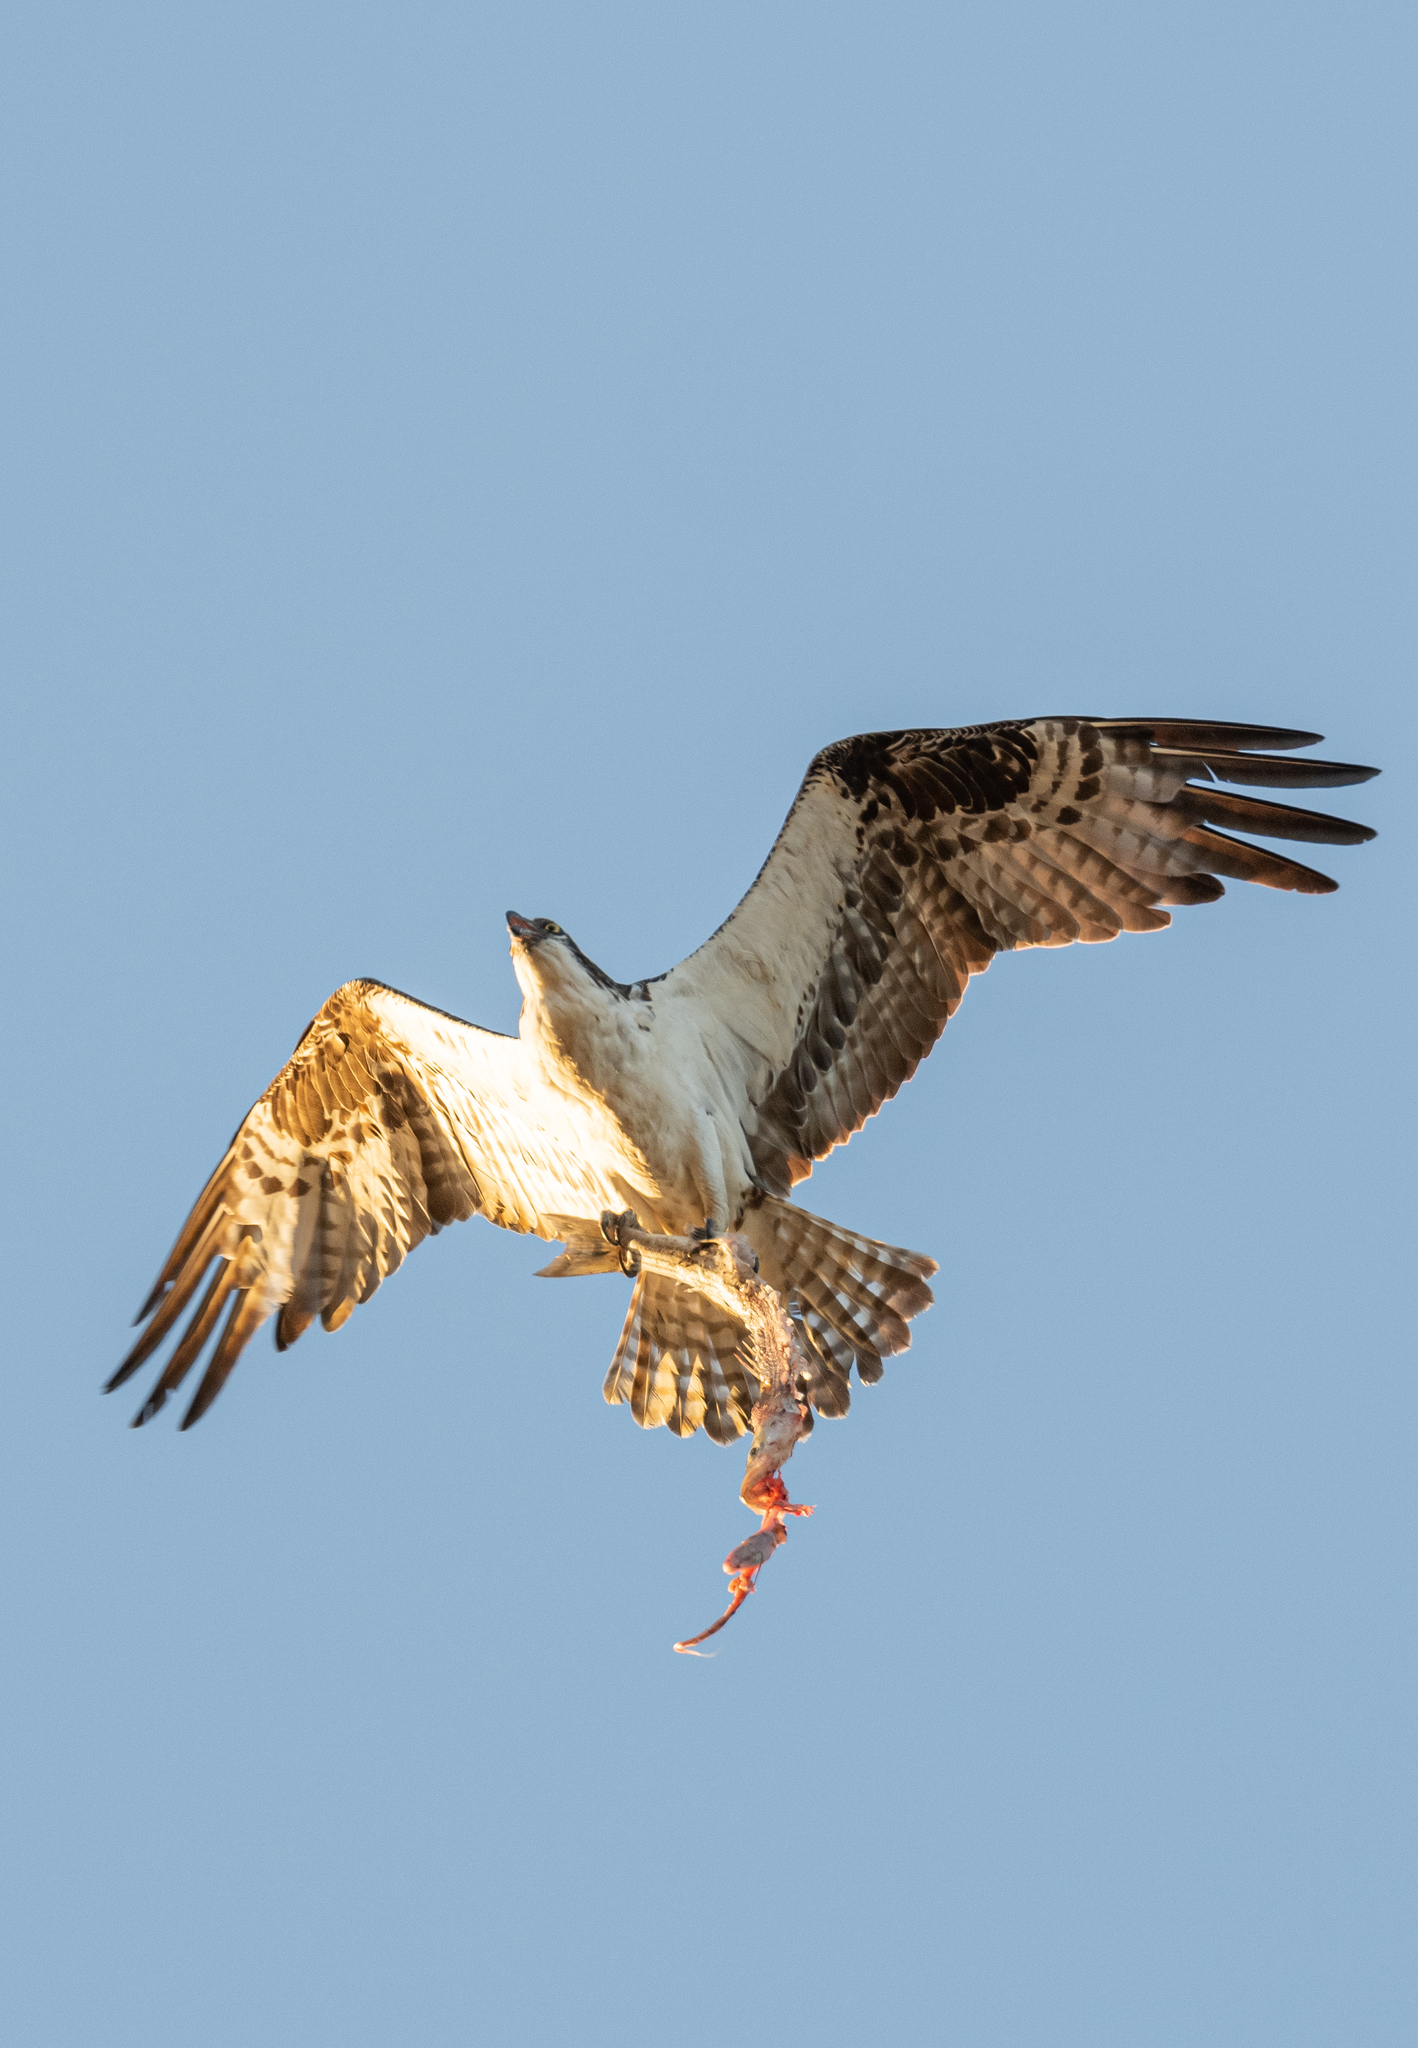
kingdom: Animalia
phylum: Chordata
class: Aves
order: Accipitriformes
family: Pandionidae
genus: Pandion
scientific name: Pandion haliaetus
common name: Osprey
